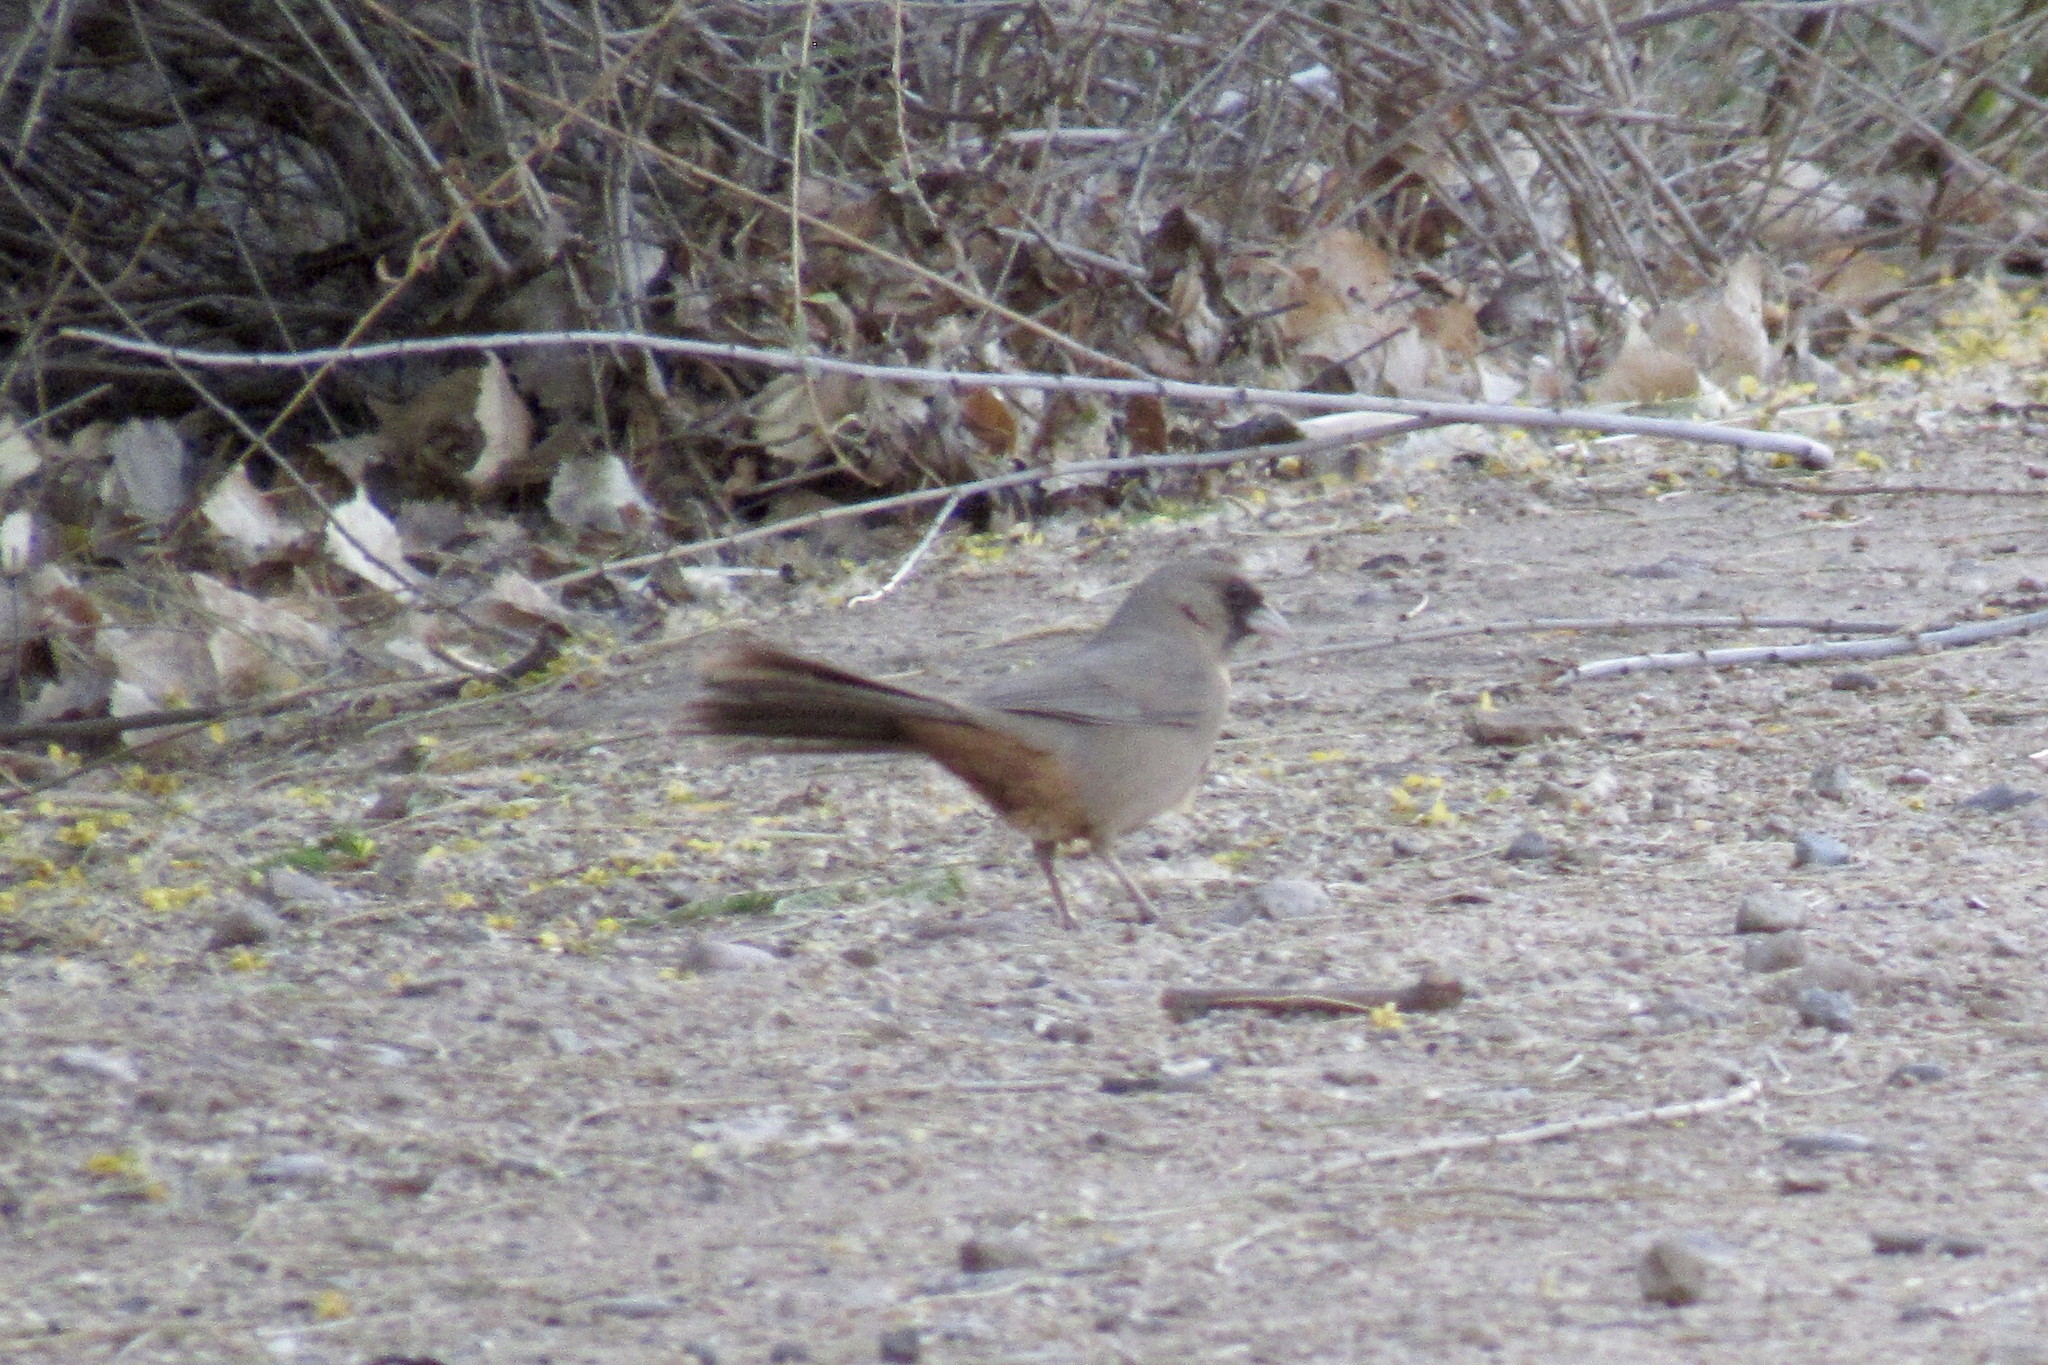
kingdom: Animalia
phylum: Chordata
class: Aves
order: Passeriformes
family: Passerellidae
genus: Melozone
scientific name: Melozone aberti
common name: Abert's towhee
